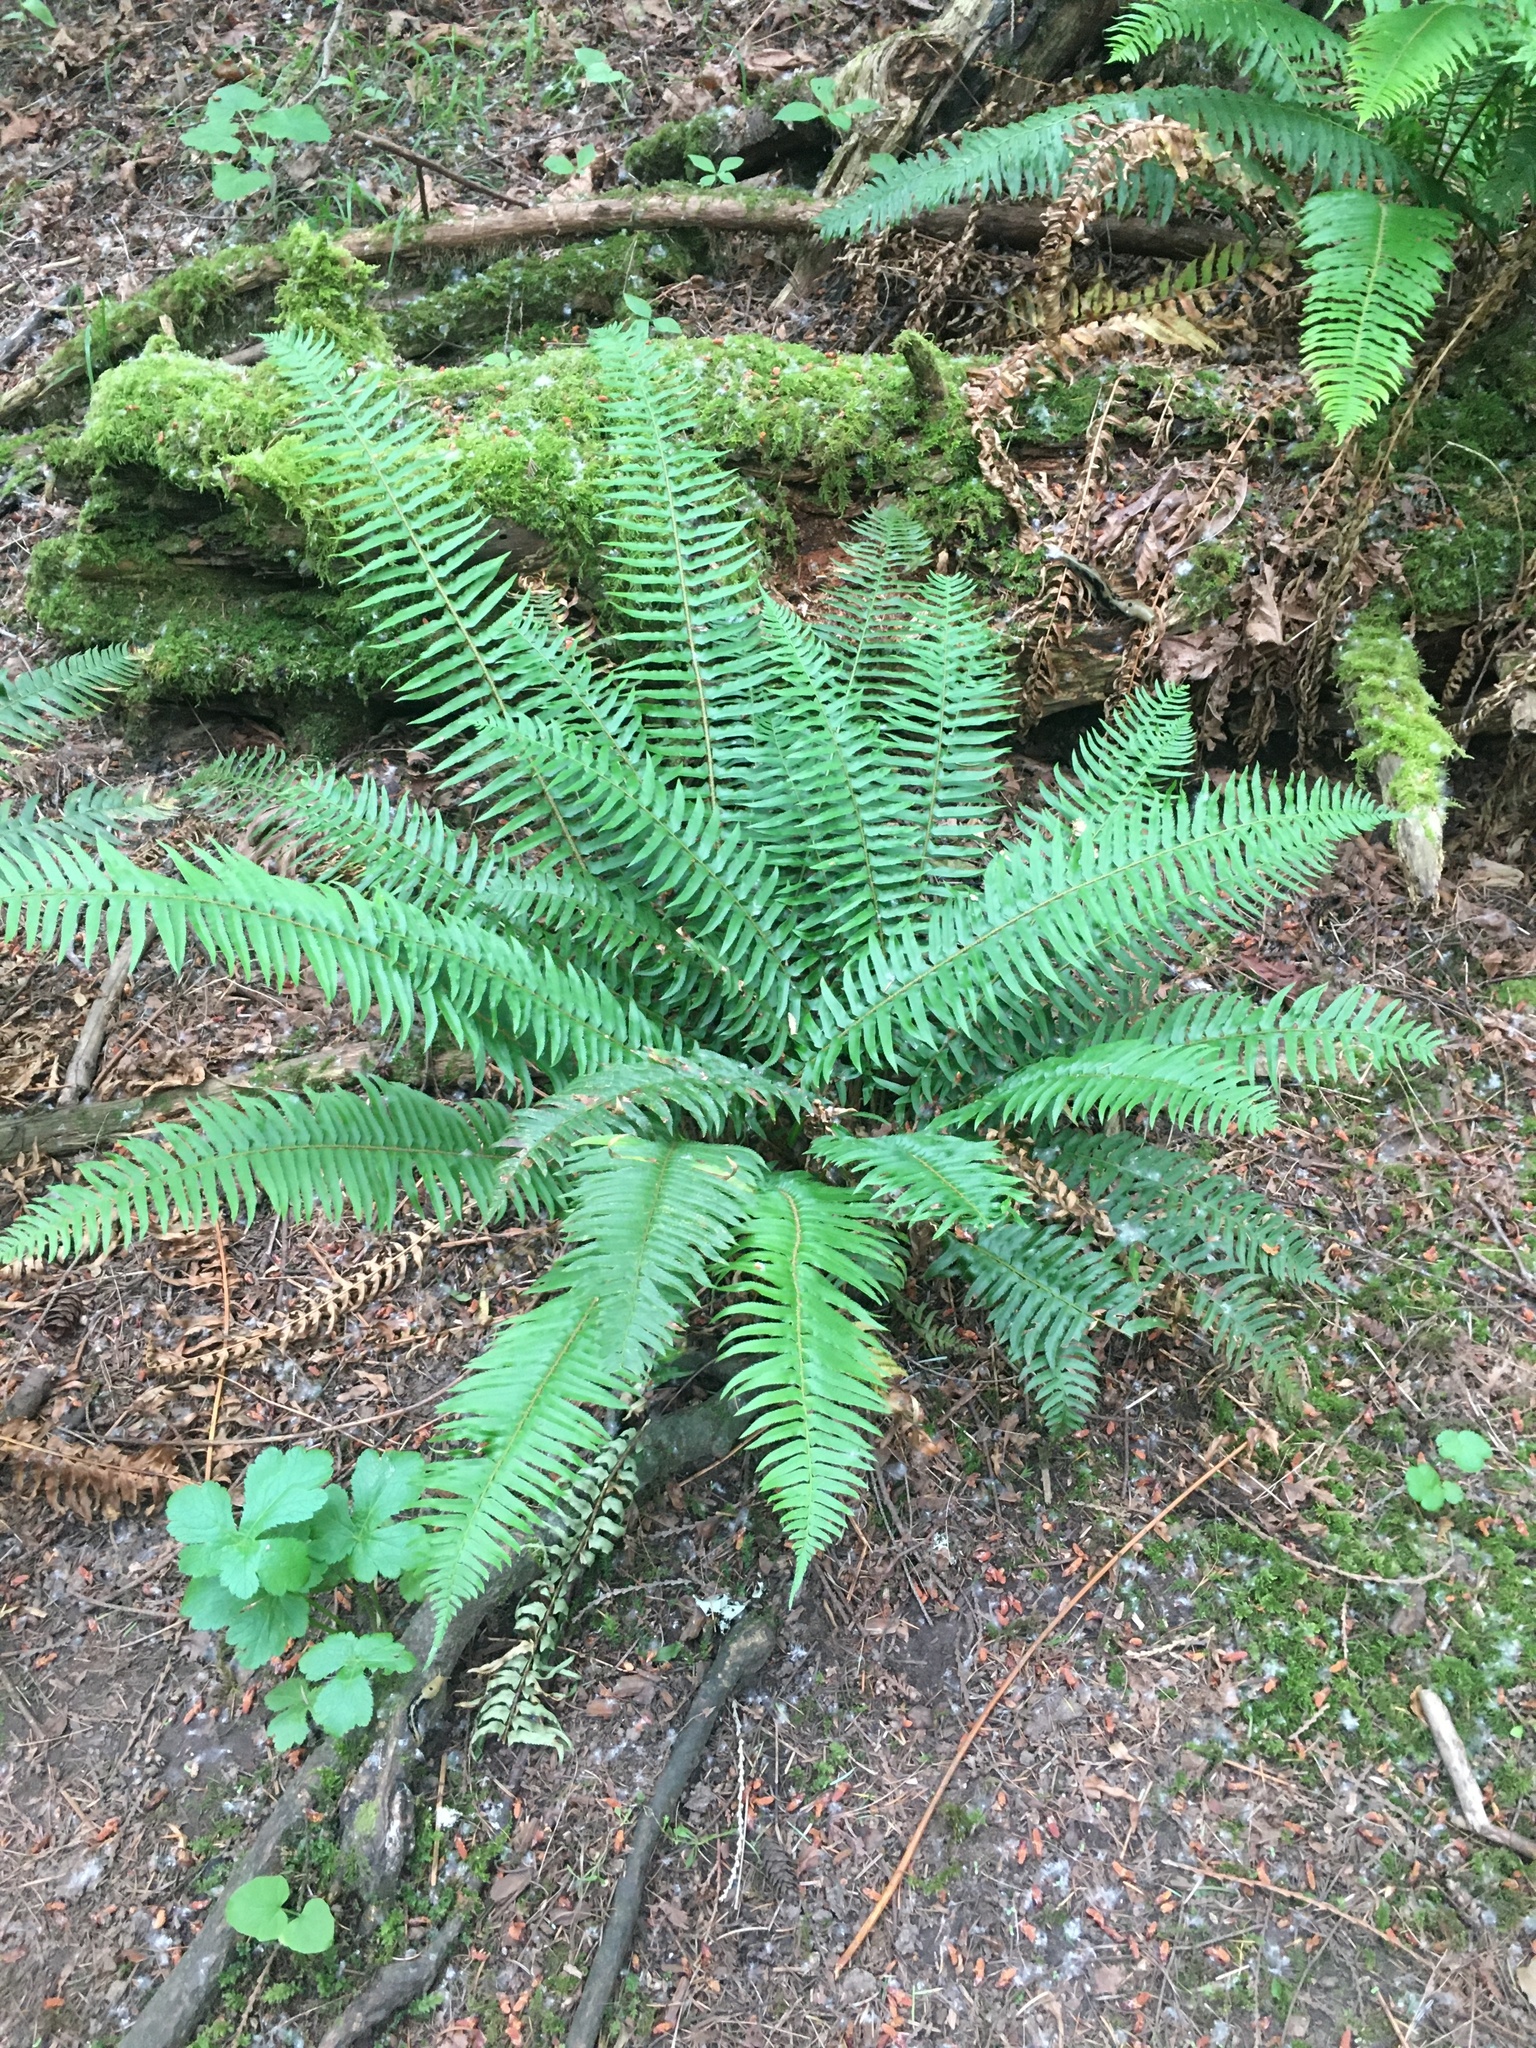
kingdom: Plantae
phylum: Tracheophyta
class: Polypodiopsida
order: Polypodiales
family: Dryopteridaceae
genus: Polystichum
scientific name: Polystichum munitum
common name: Western sword-fern
